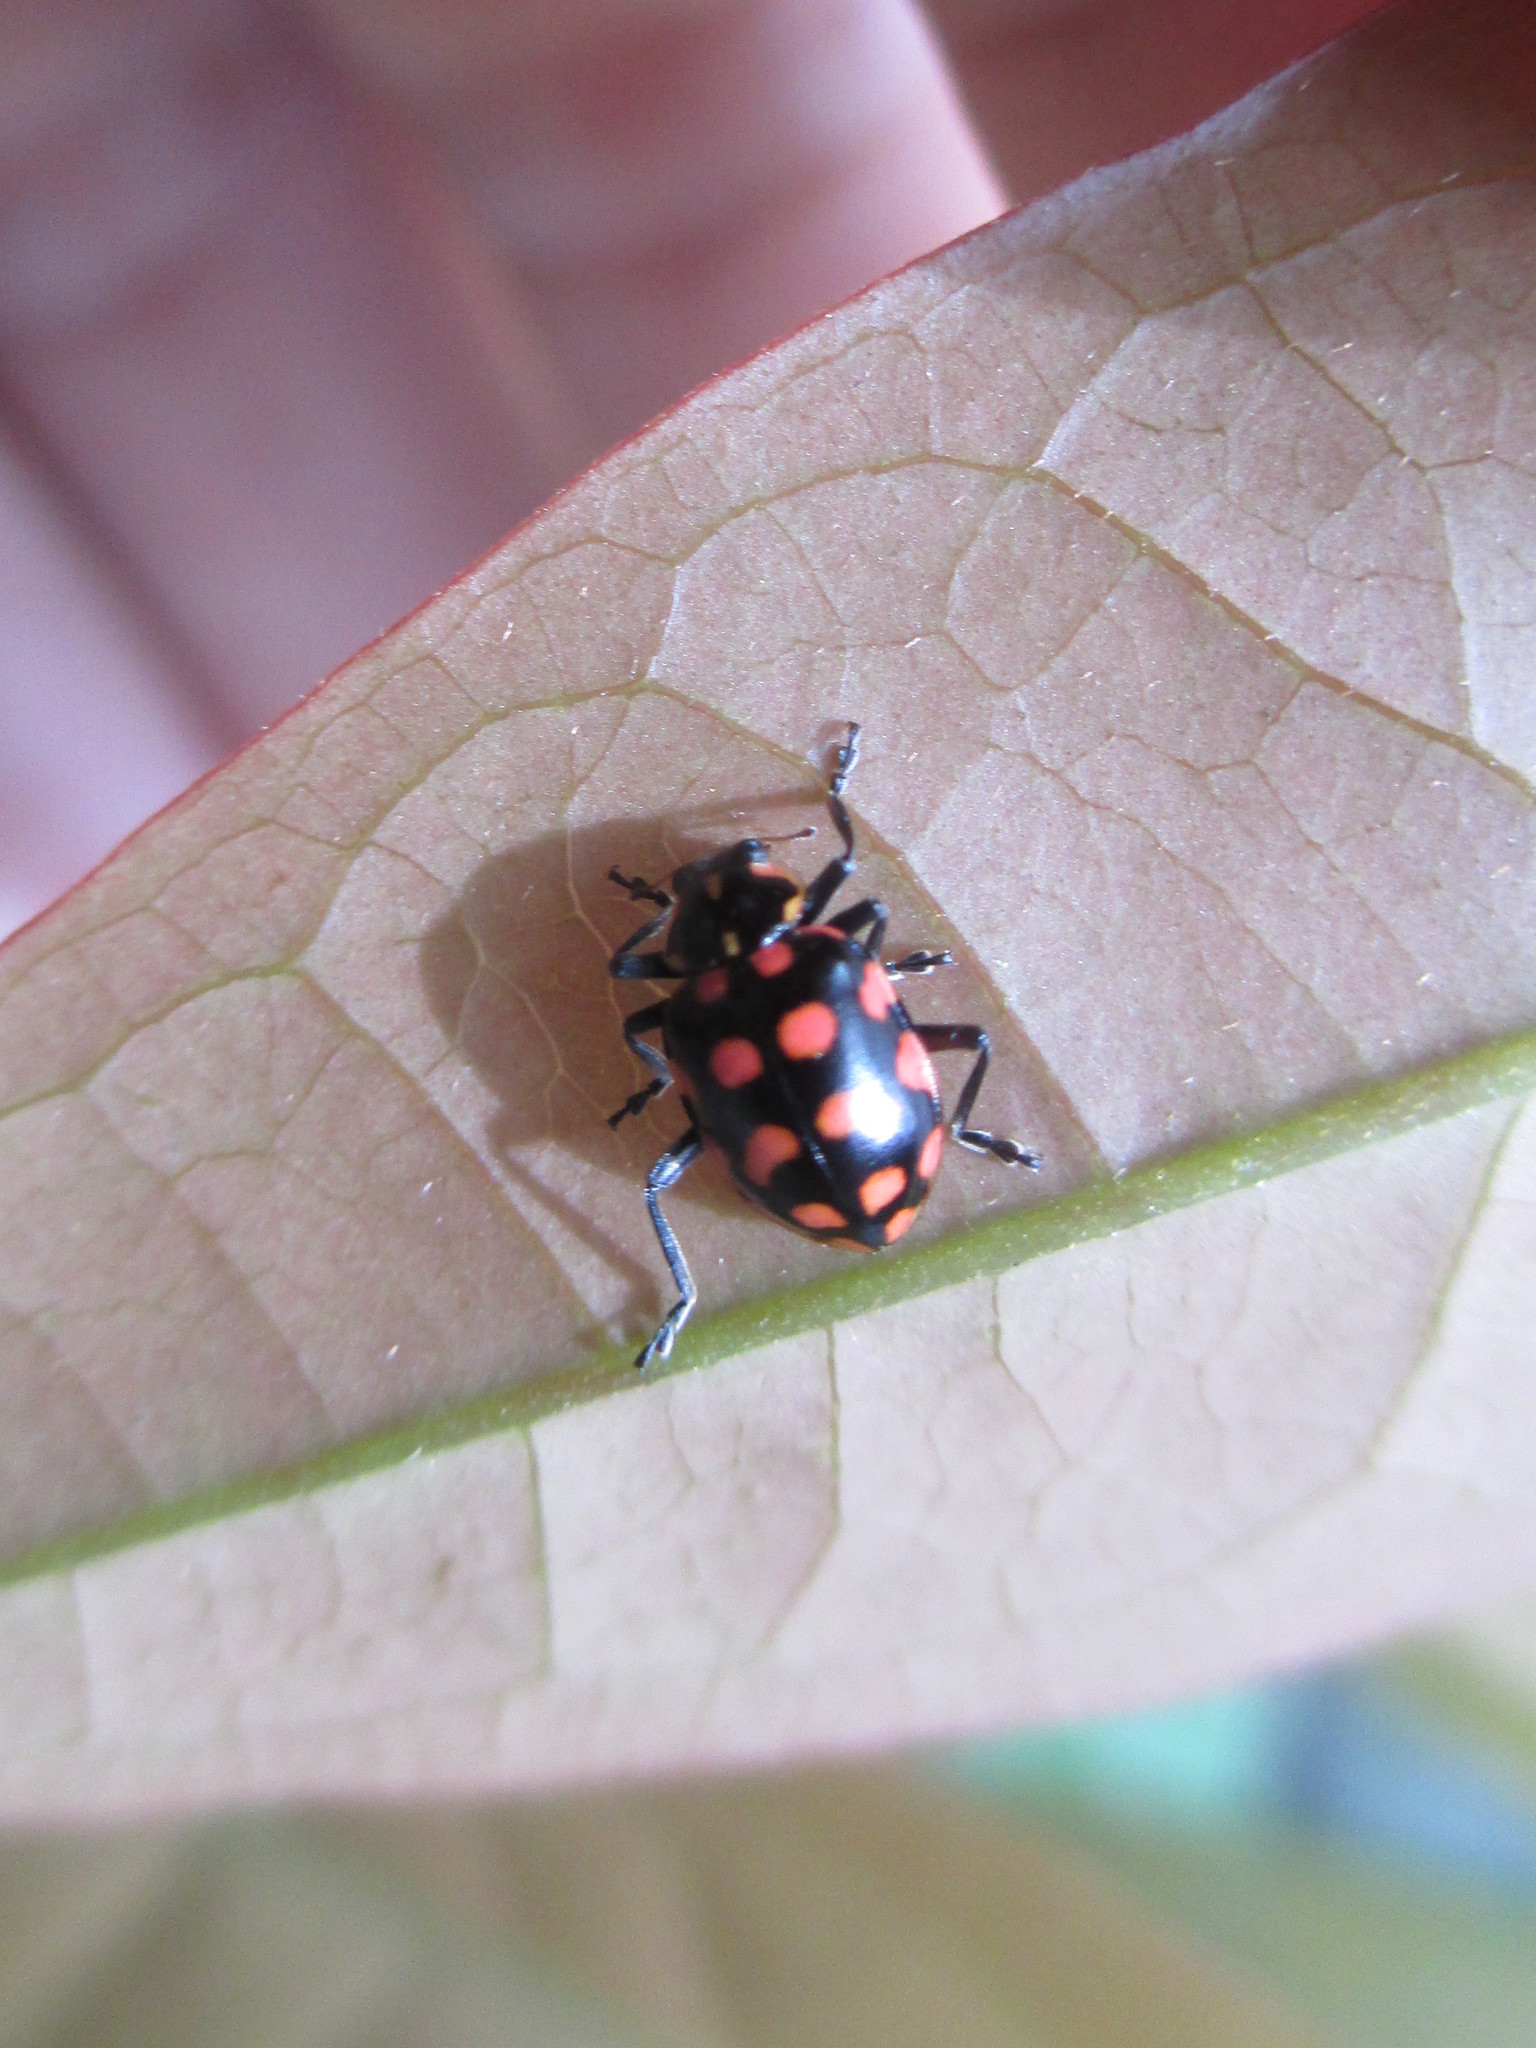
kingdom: Animalia
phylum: Arthropoda
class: Insecta
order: Coleoptera
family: Coccinellidae
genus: Coleomegilla
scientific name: Coleomegilla
